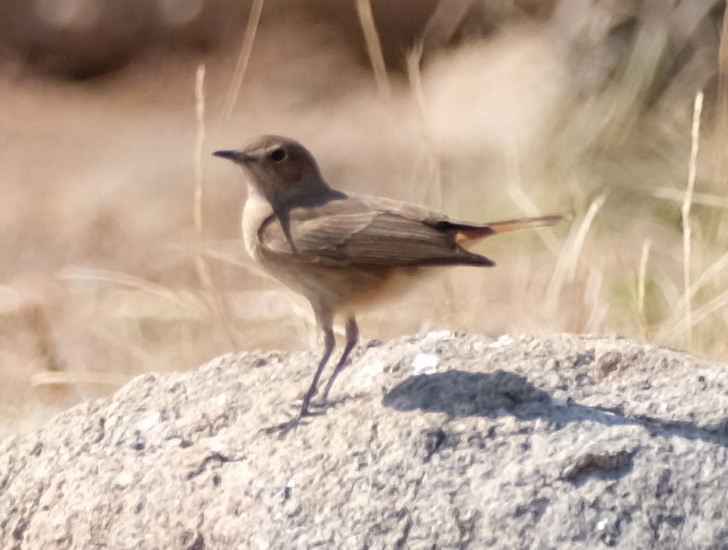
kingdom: Animalia
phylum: Chordata
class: Aves
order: Passeriformes
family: Muscicapidae
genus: Oenanthe
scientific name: Oenanthe familiaris
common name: Familiar chat
